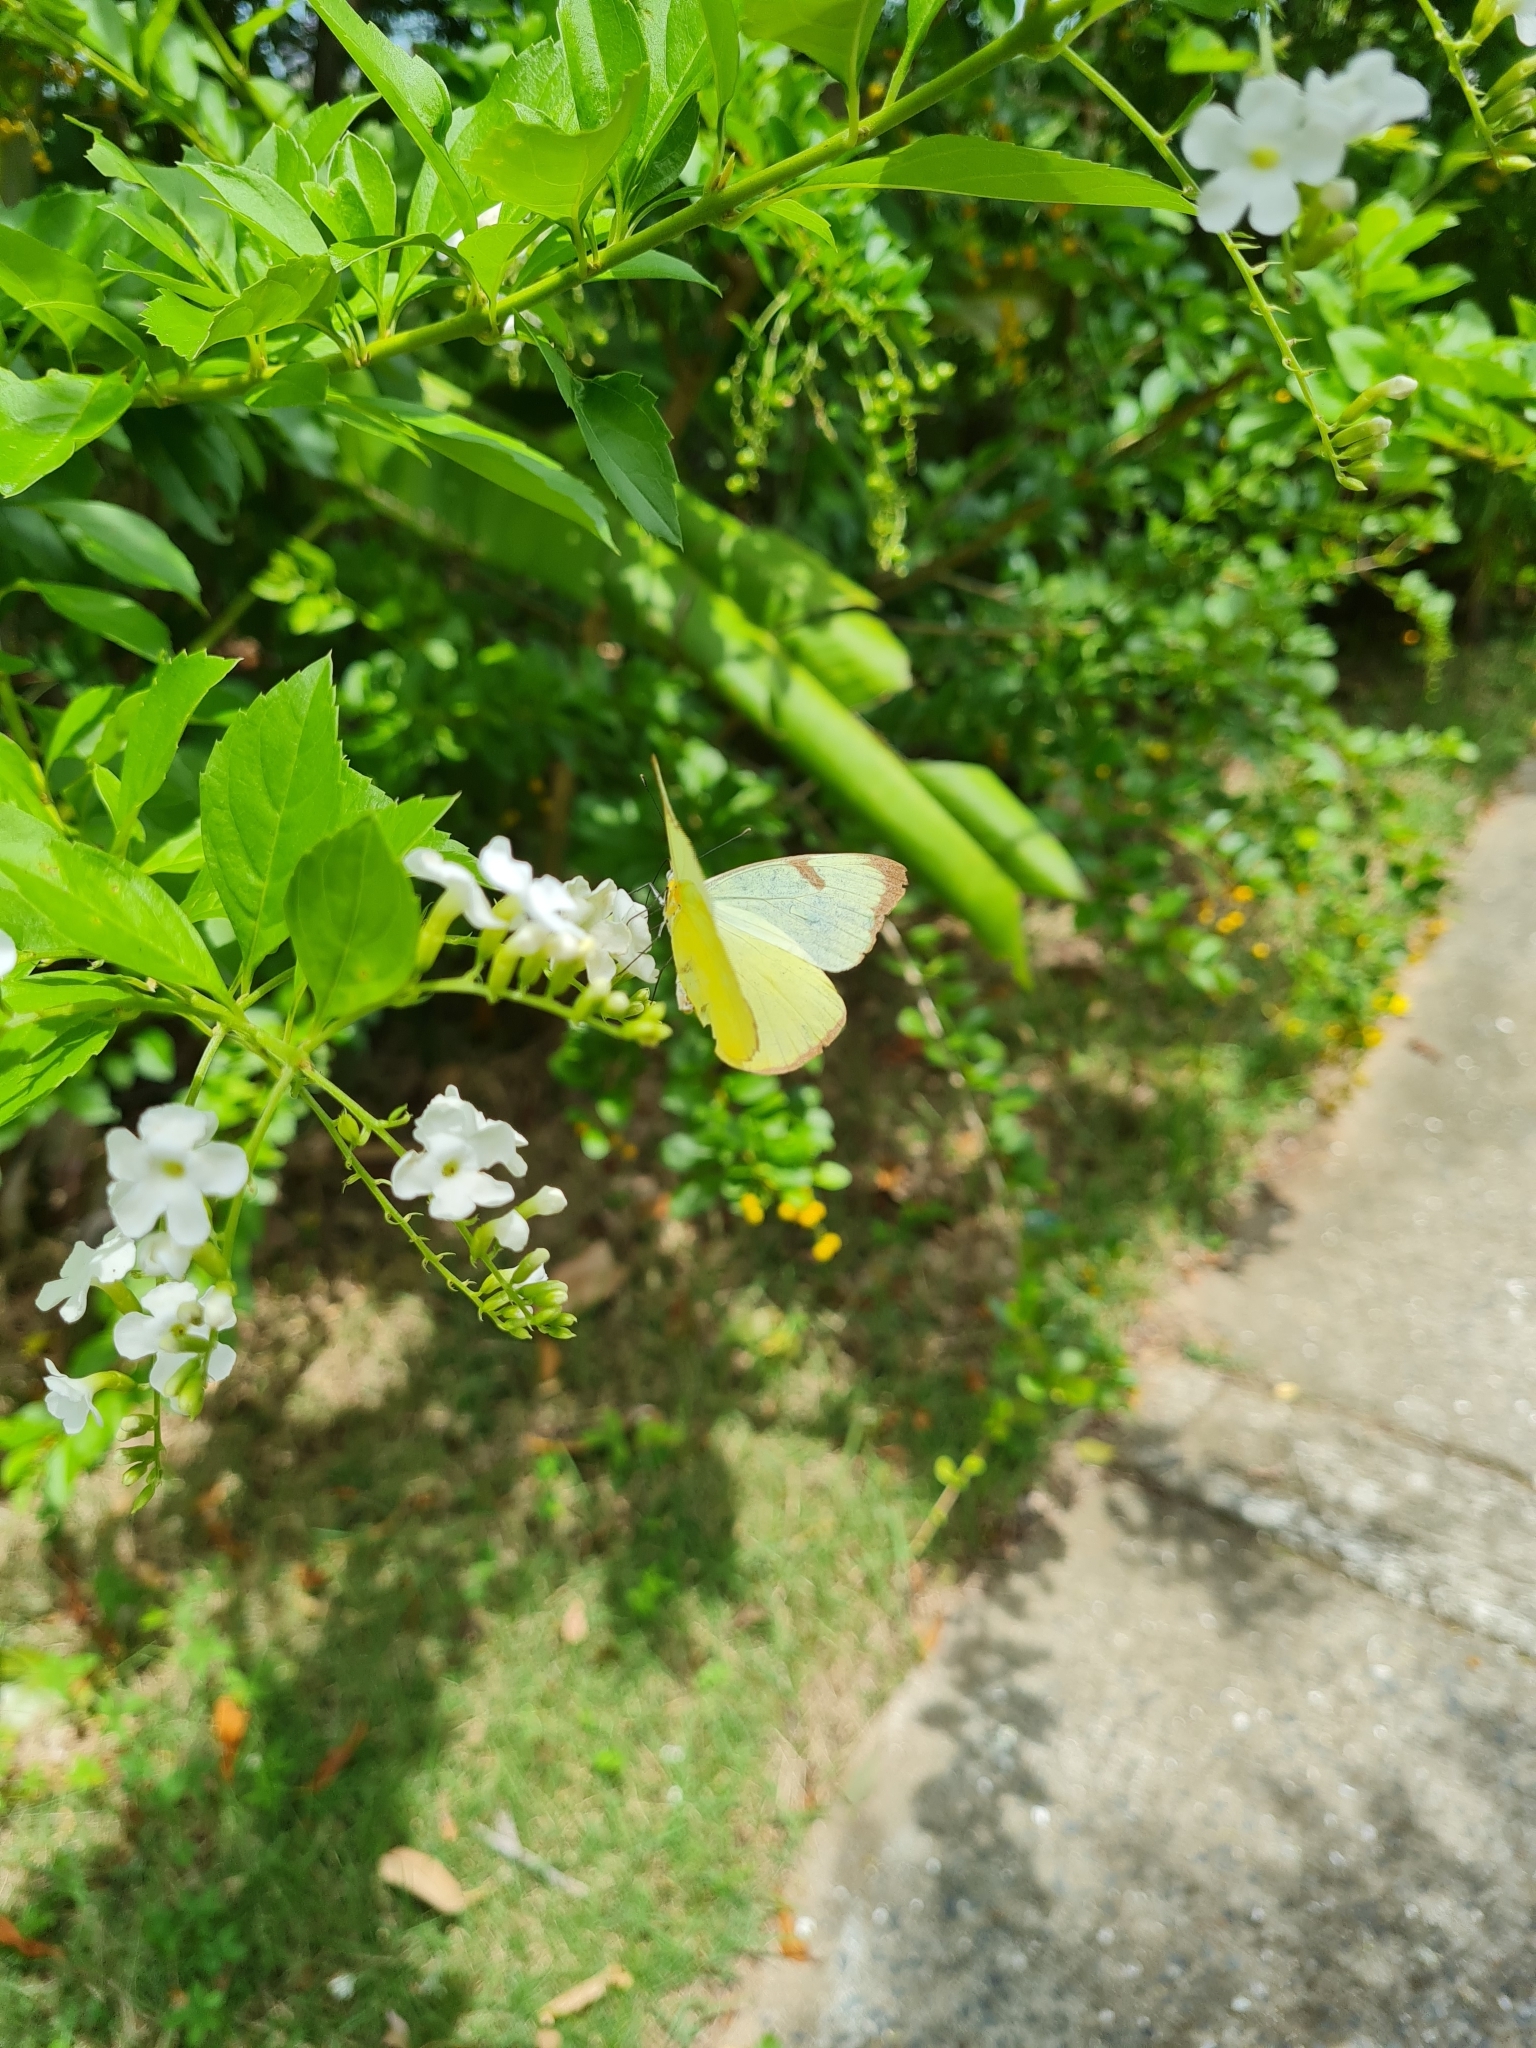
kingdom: Animalia
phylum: Arthropoda
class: Insecta
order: Lepidoptera
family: Pieridae
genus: Melete
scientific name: Melete polyhymnia
